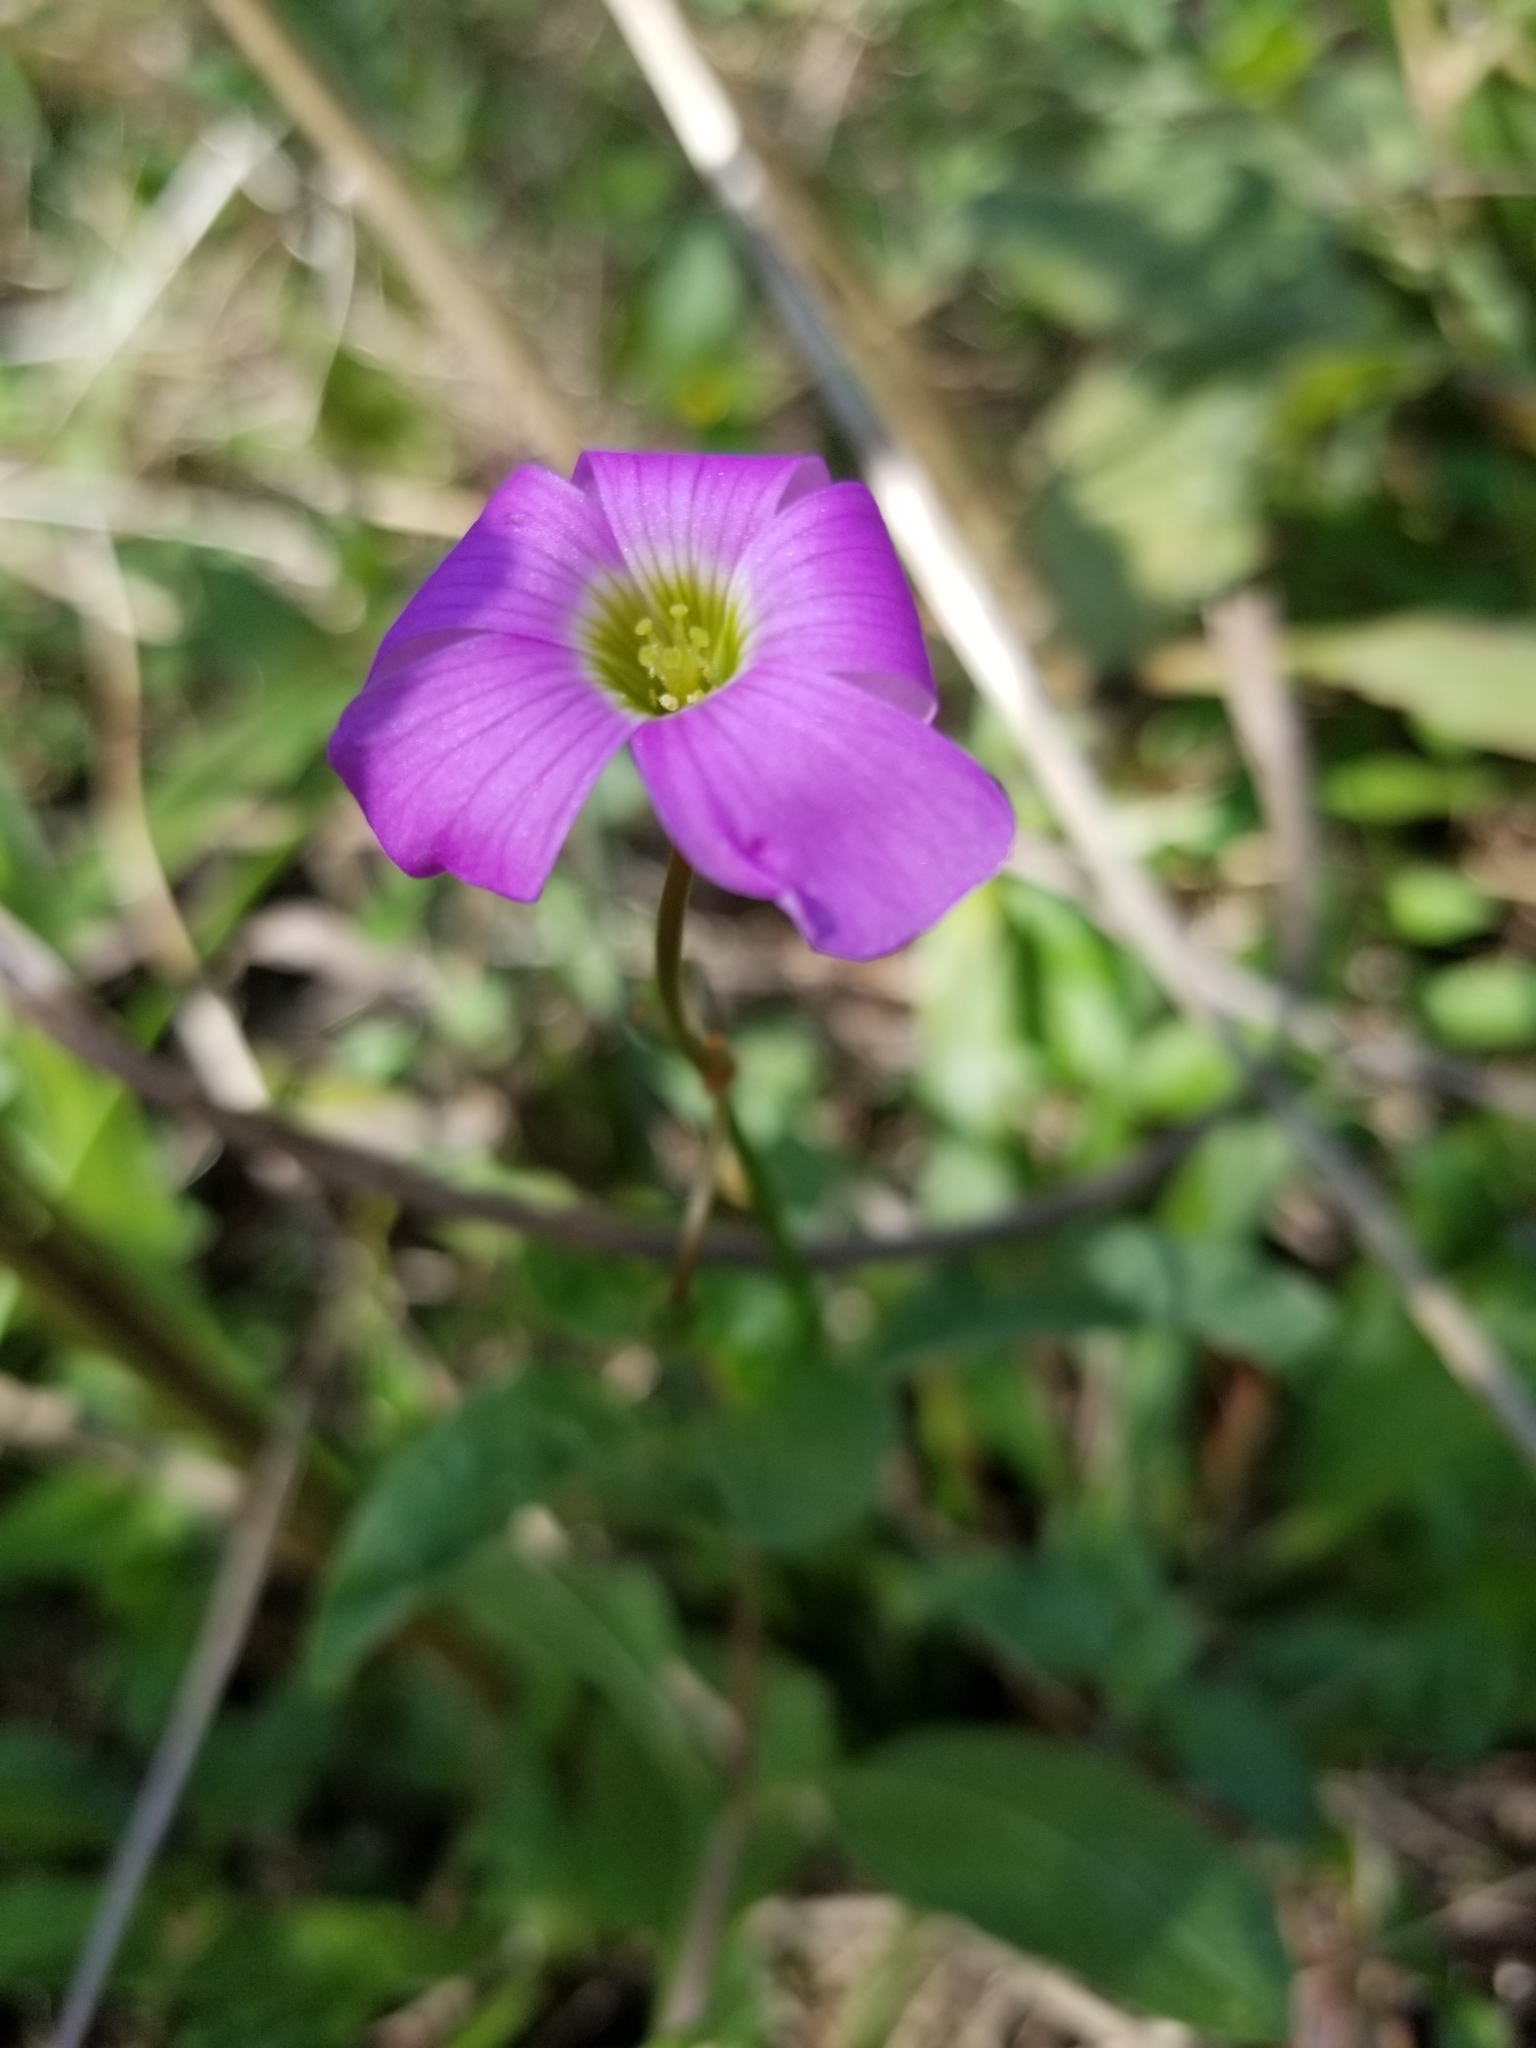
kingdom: Plantae
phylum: Tracheophyta
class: Magnoliopsida
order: Oxalidales
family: Oxalidaceae
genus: Oxalis
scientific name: Oxalis drummondii
